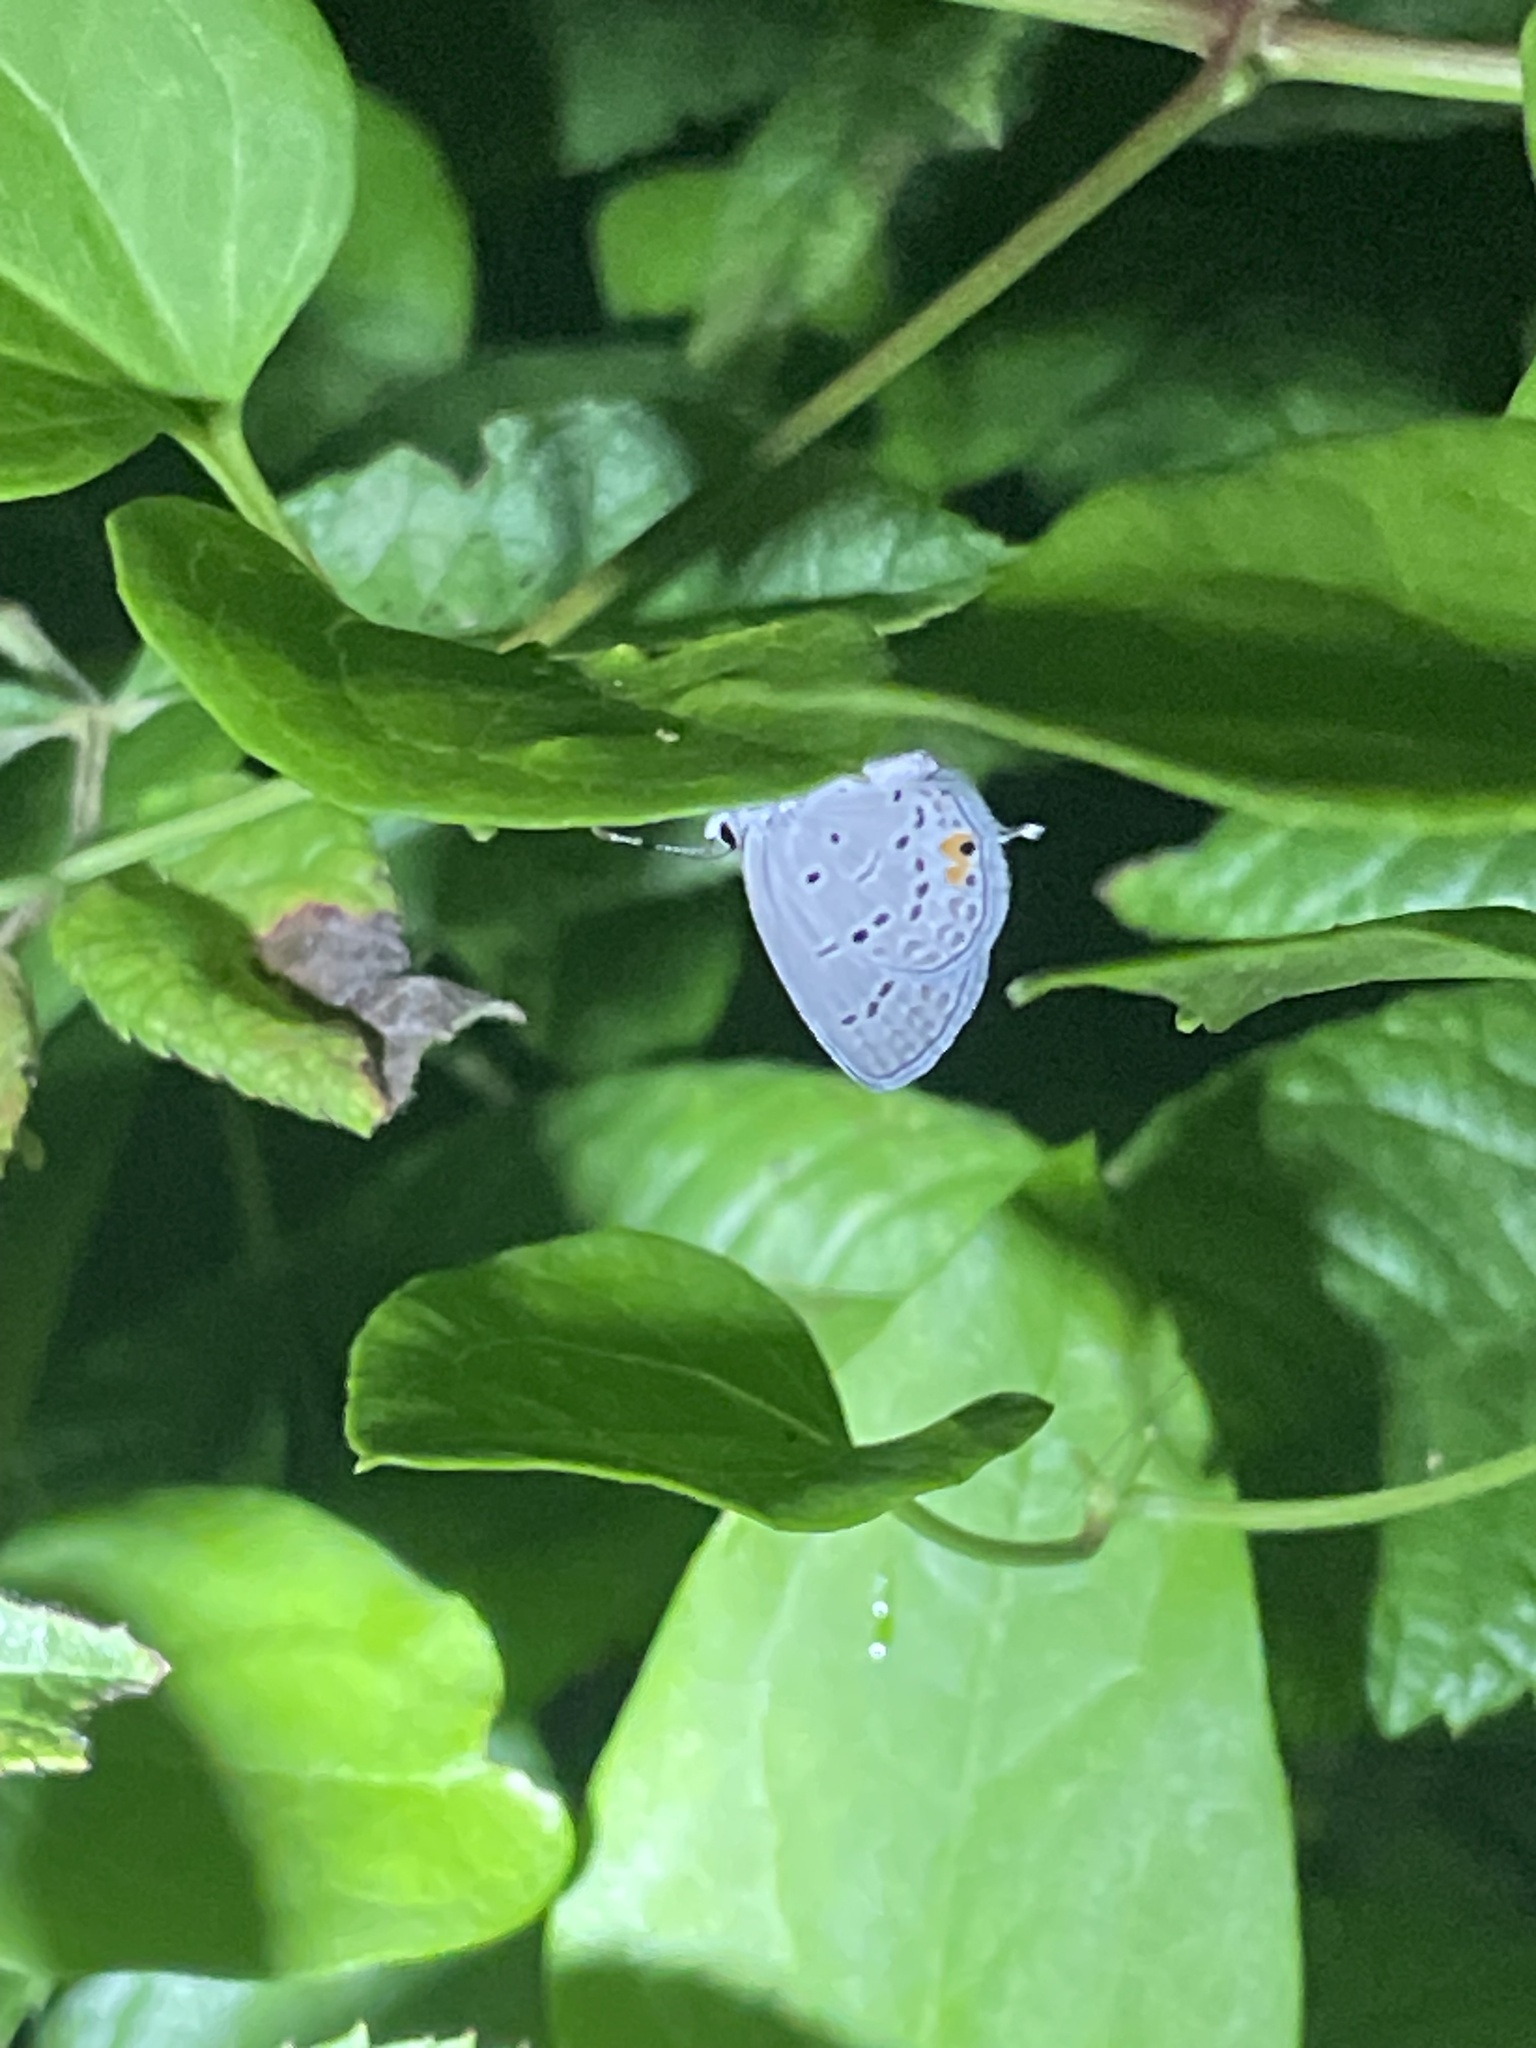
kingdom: Animalia
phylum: Arthropoda
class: Insecta
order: Lepidoptera
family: Lycaenidae
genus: Elkalyce
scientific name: Elkalyce comyntas
